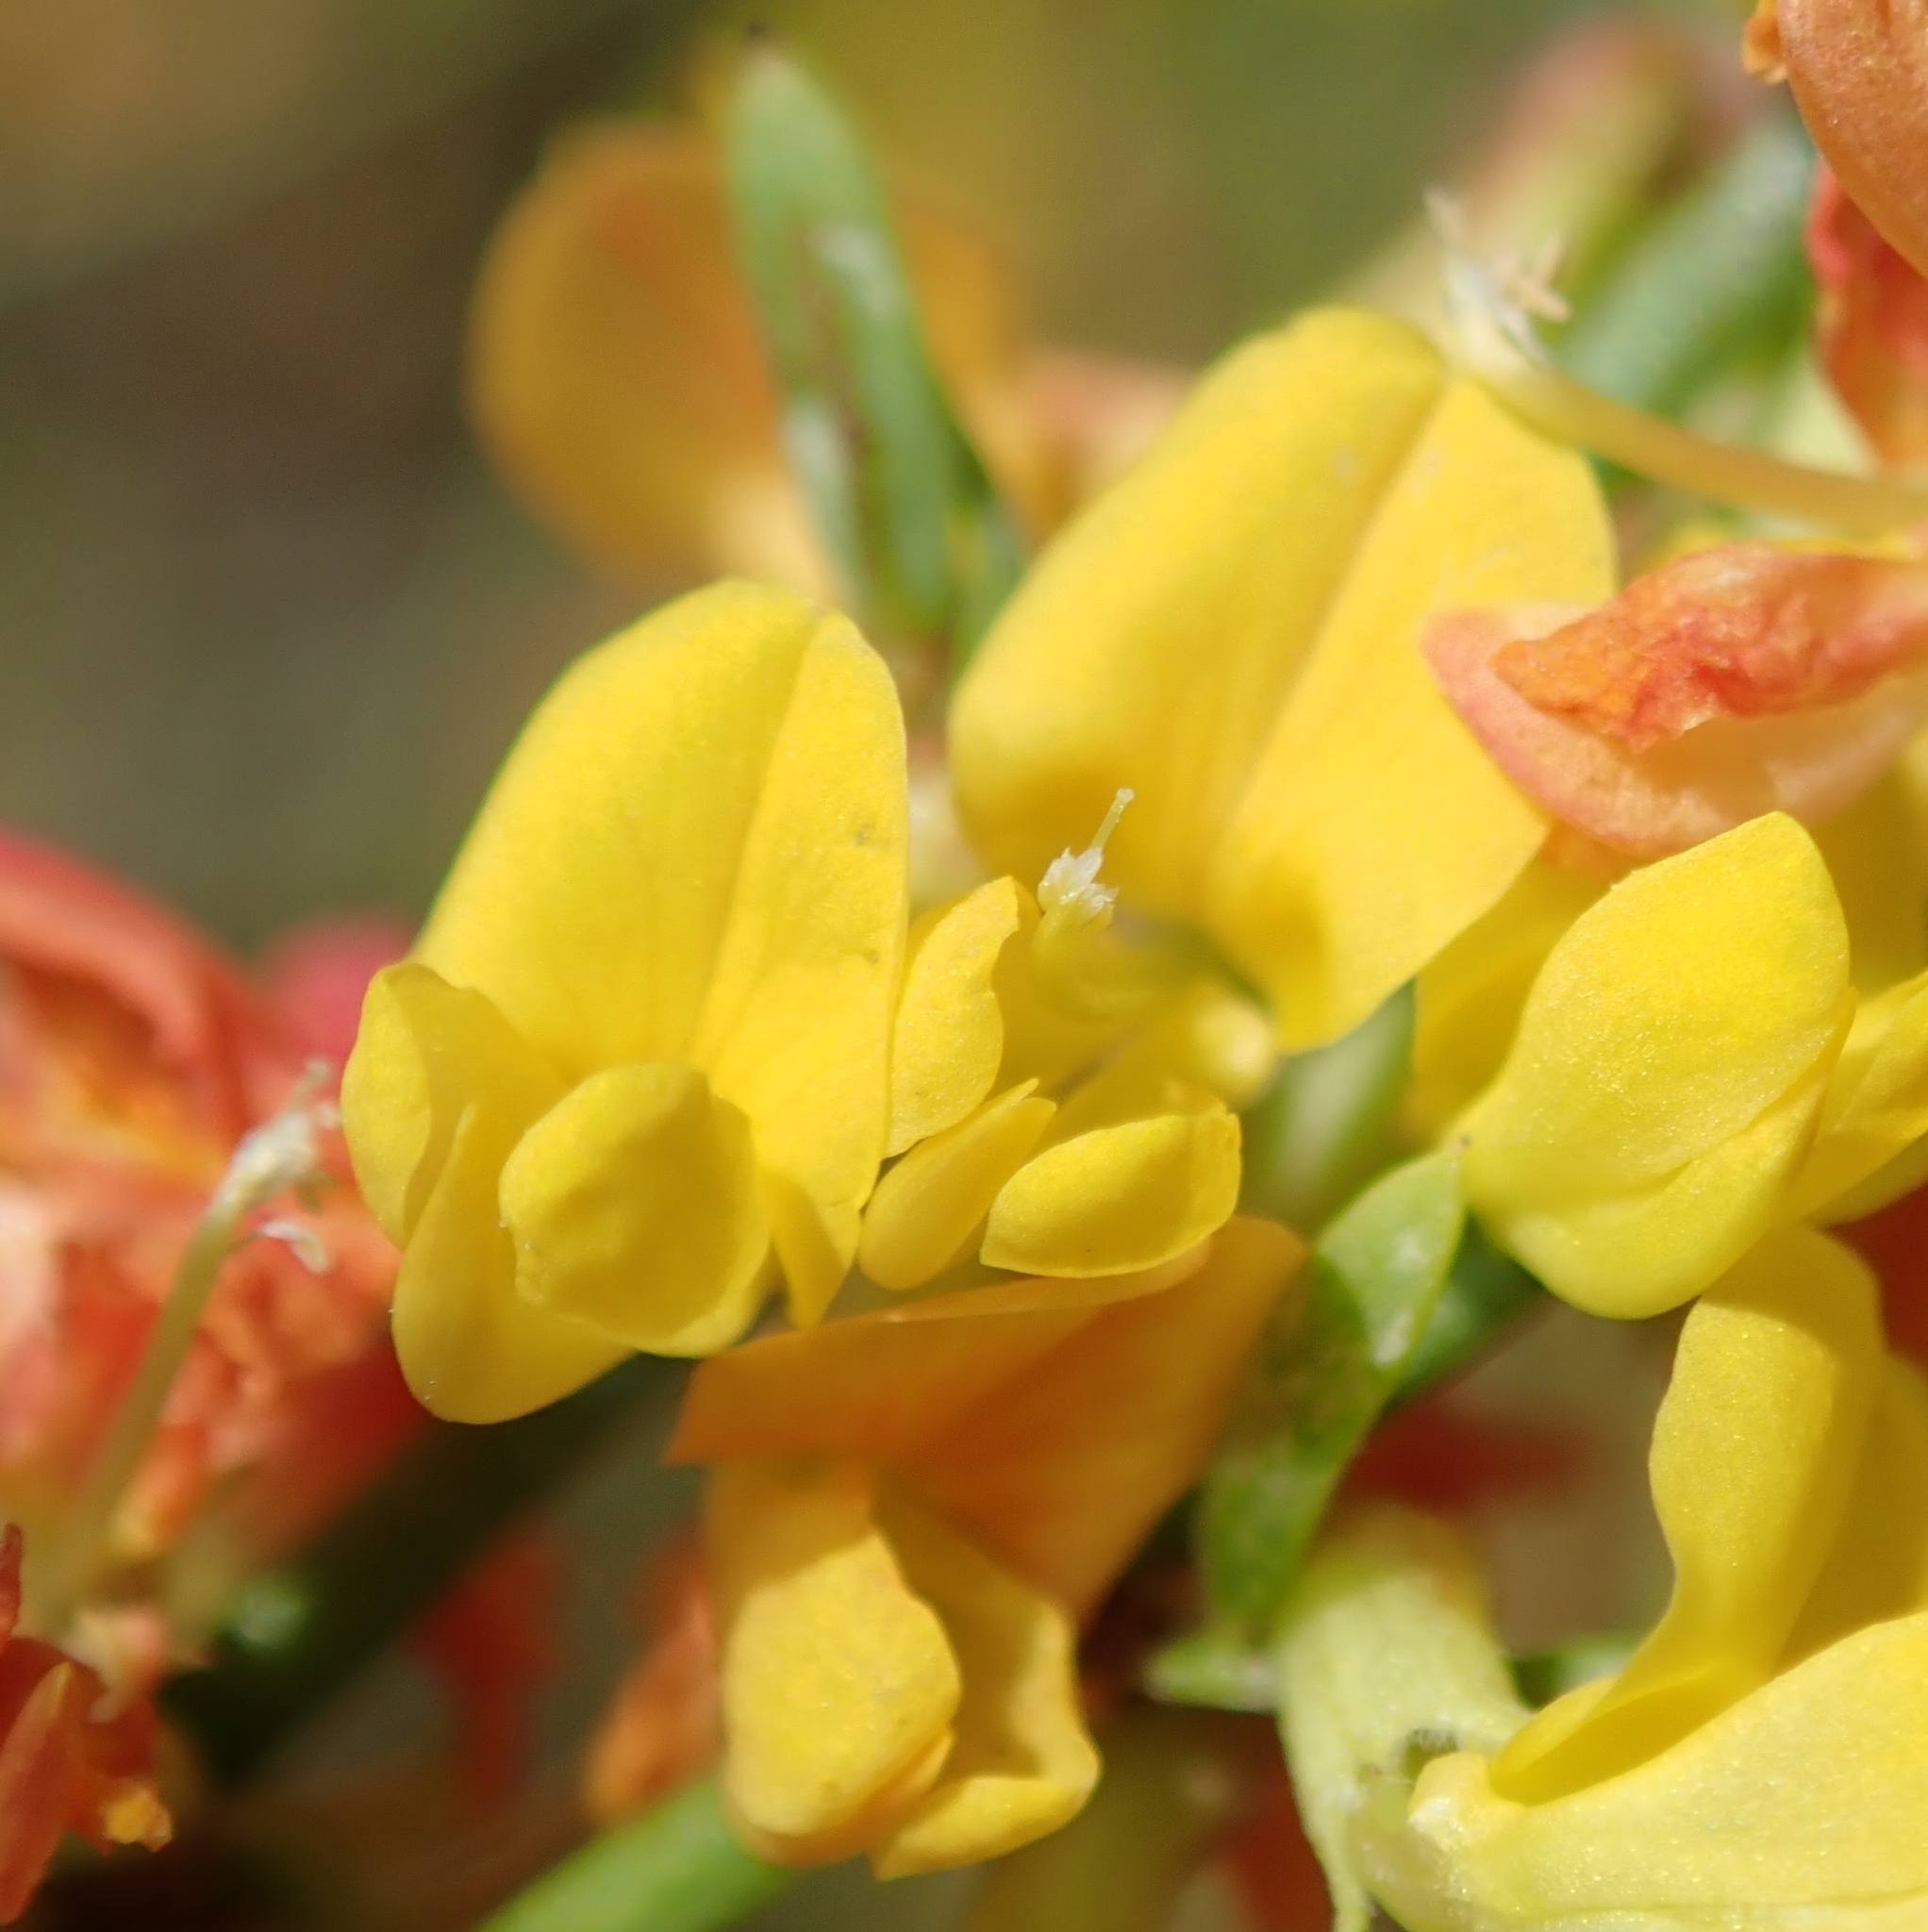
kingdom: Plantae
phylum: Tracheophyta
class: Magnoliopsida
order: Fabales
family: Fabaceae
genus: Acmispon
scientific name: Acmispon glaber
